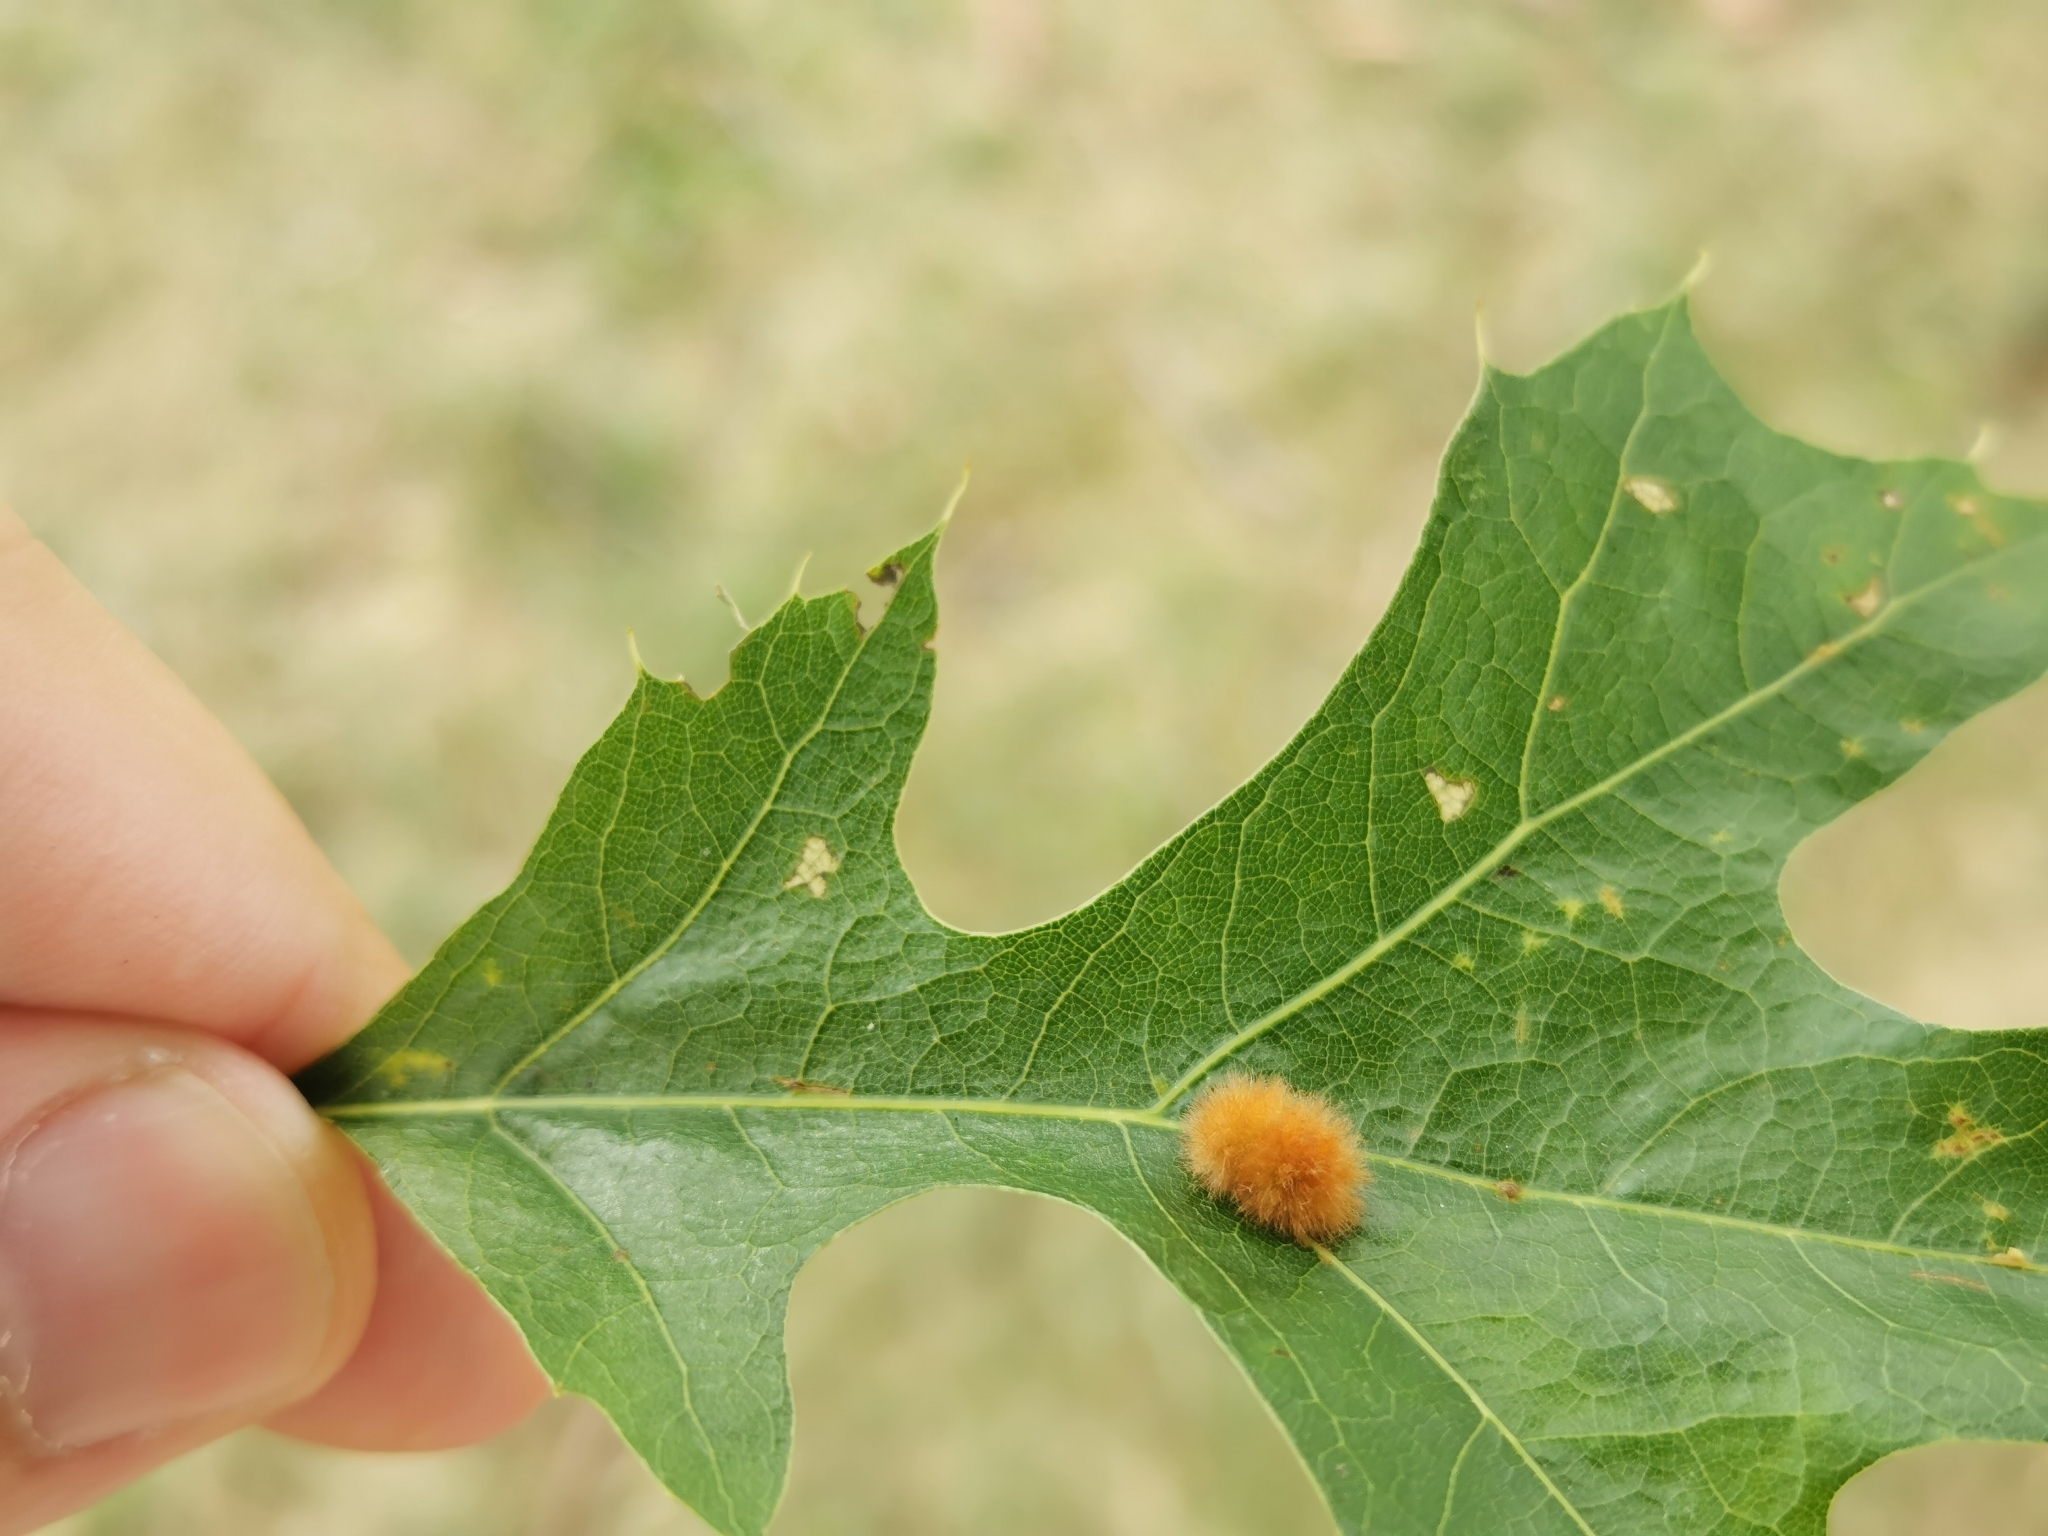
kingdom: Animalia
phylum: Arthropoda
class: Insecta
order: Hymenoptera
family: Cynipidae
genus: Callirhytis
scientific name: Callirhytis
